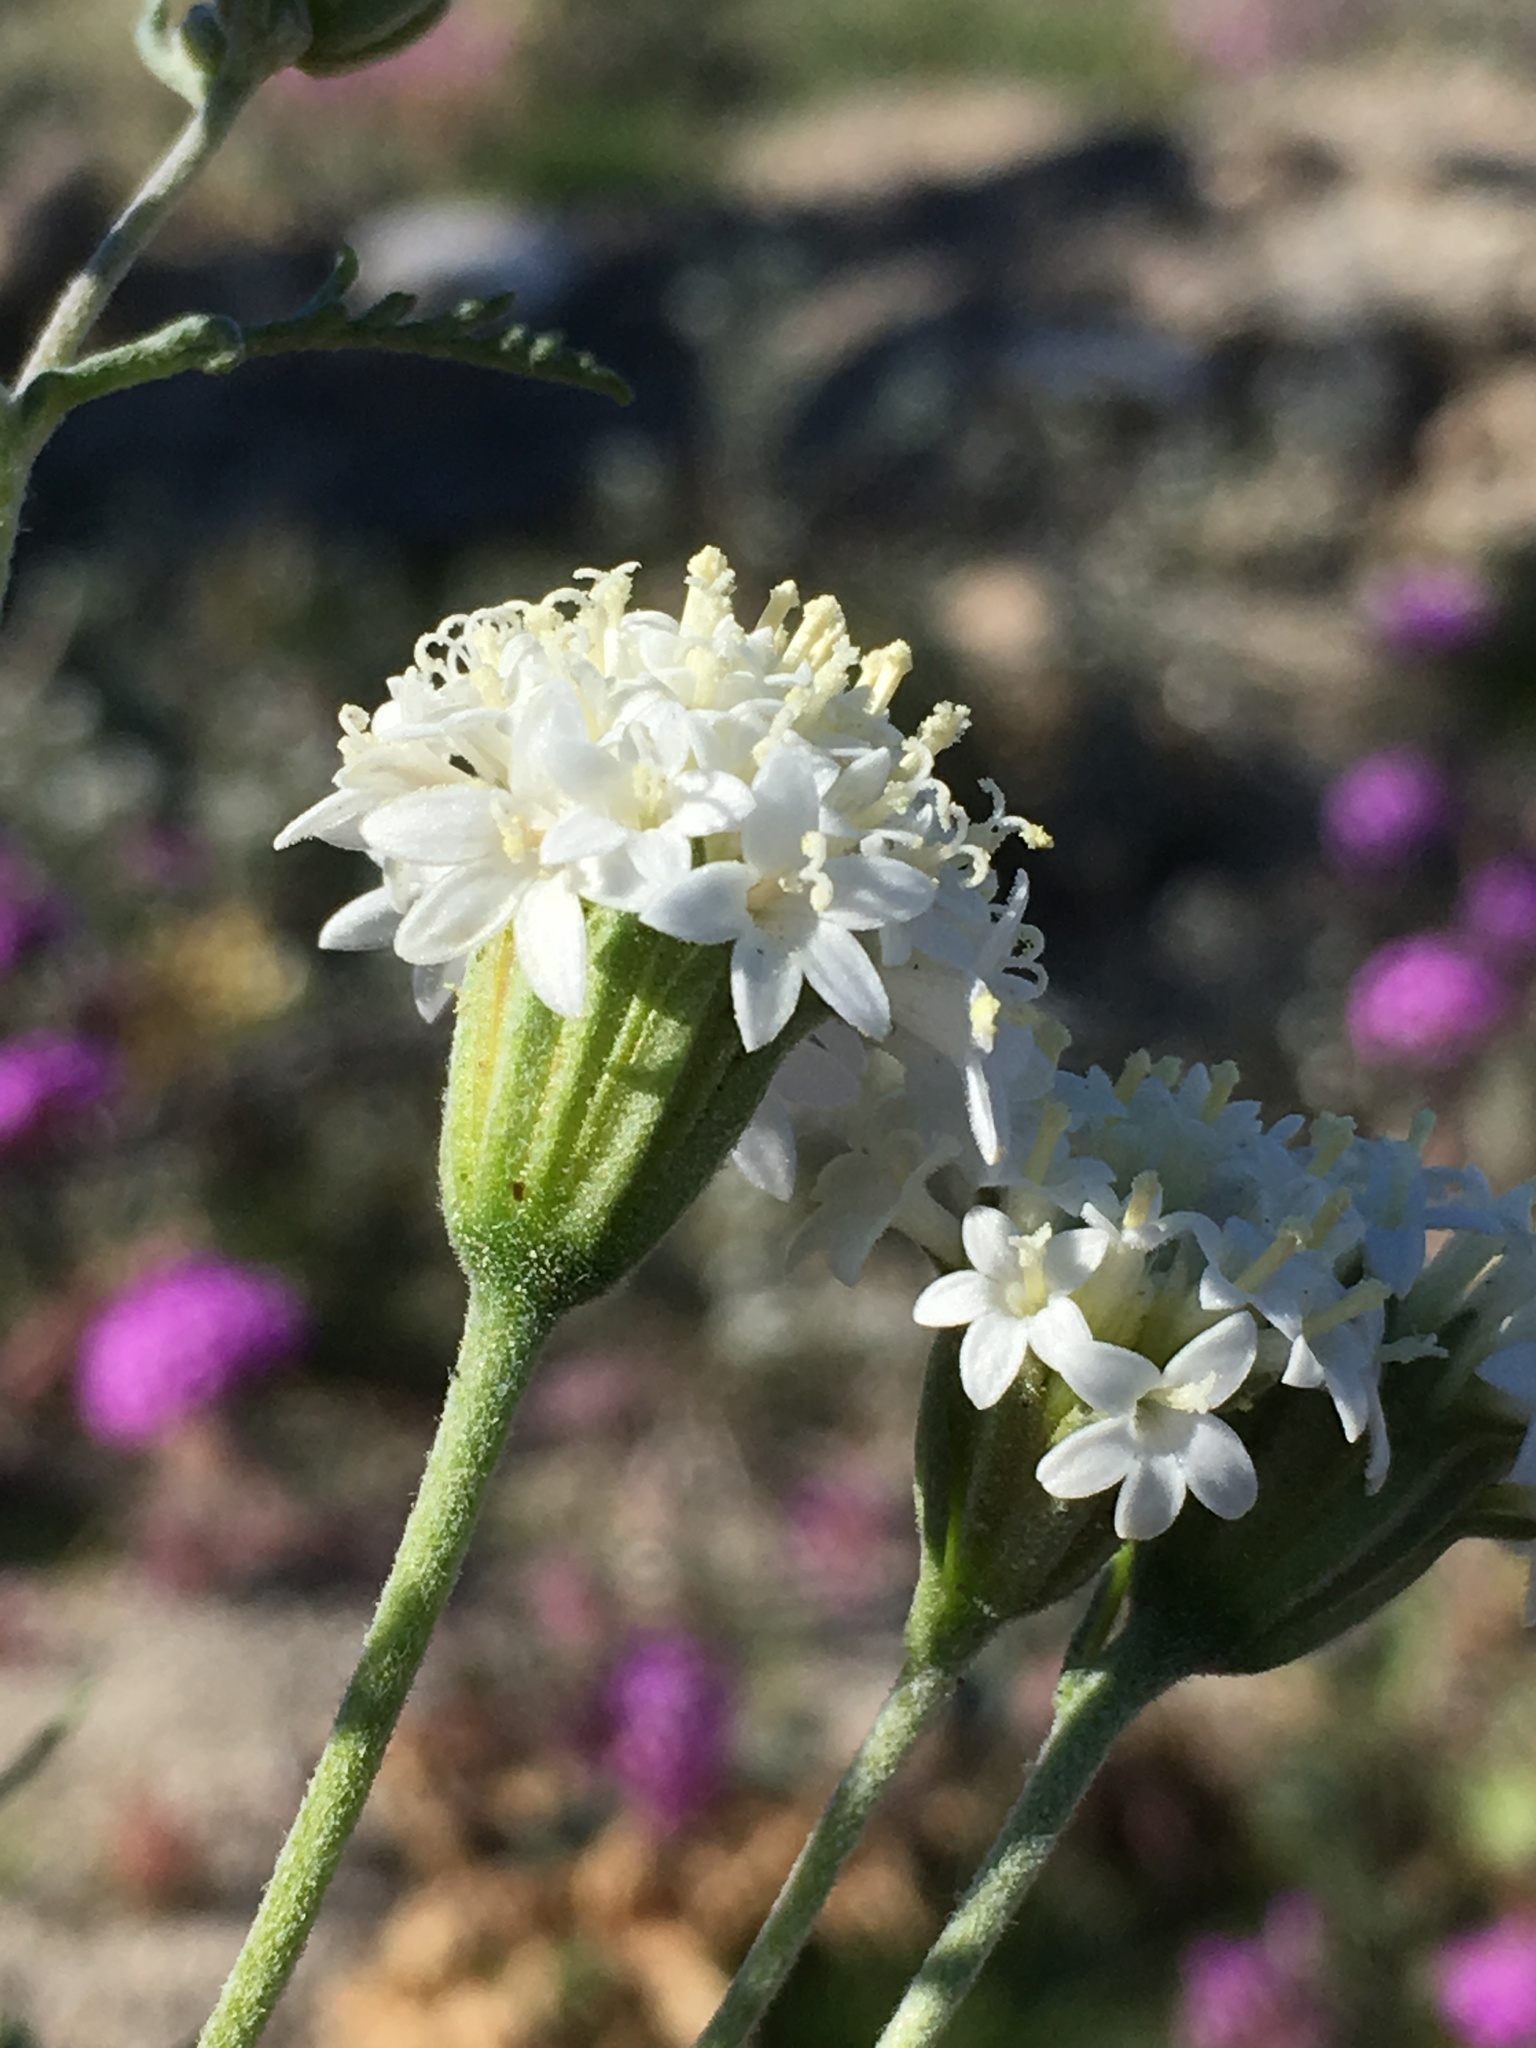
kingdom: Plantae
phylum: Tracheophyta
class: Magnoliopsida
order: Asterales
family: Asteraceae
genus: Chaenactis
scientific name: Chaenactis stevioides
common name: Desert pincushion
